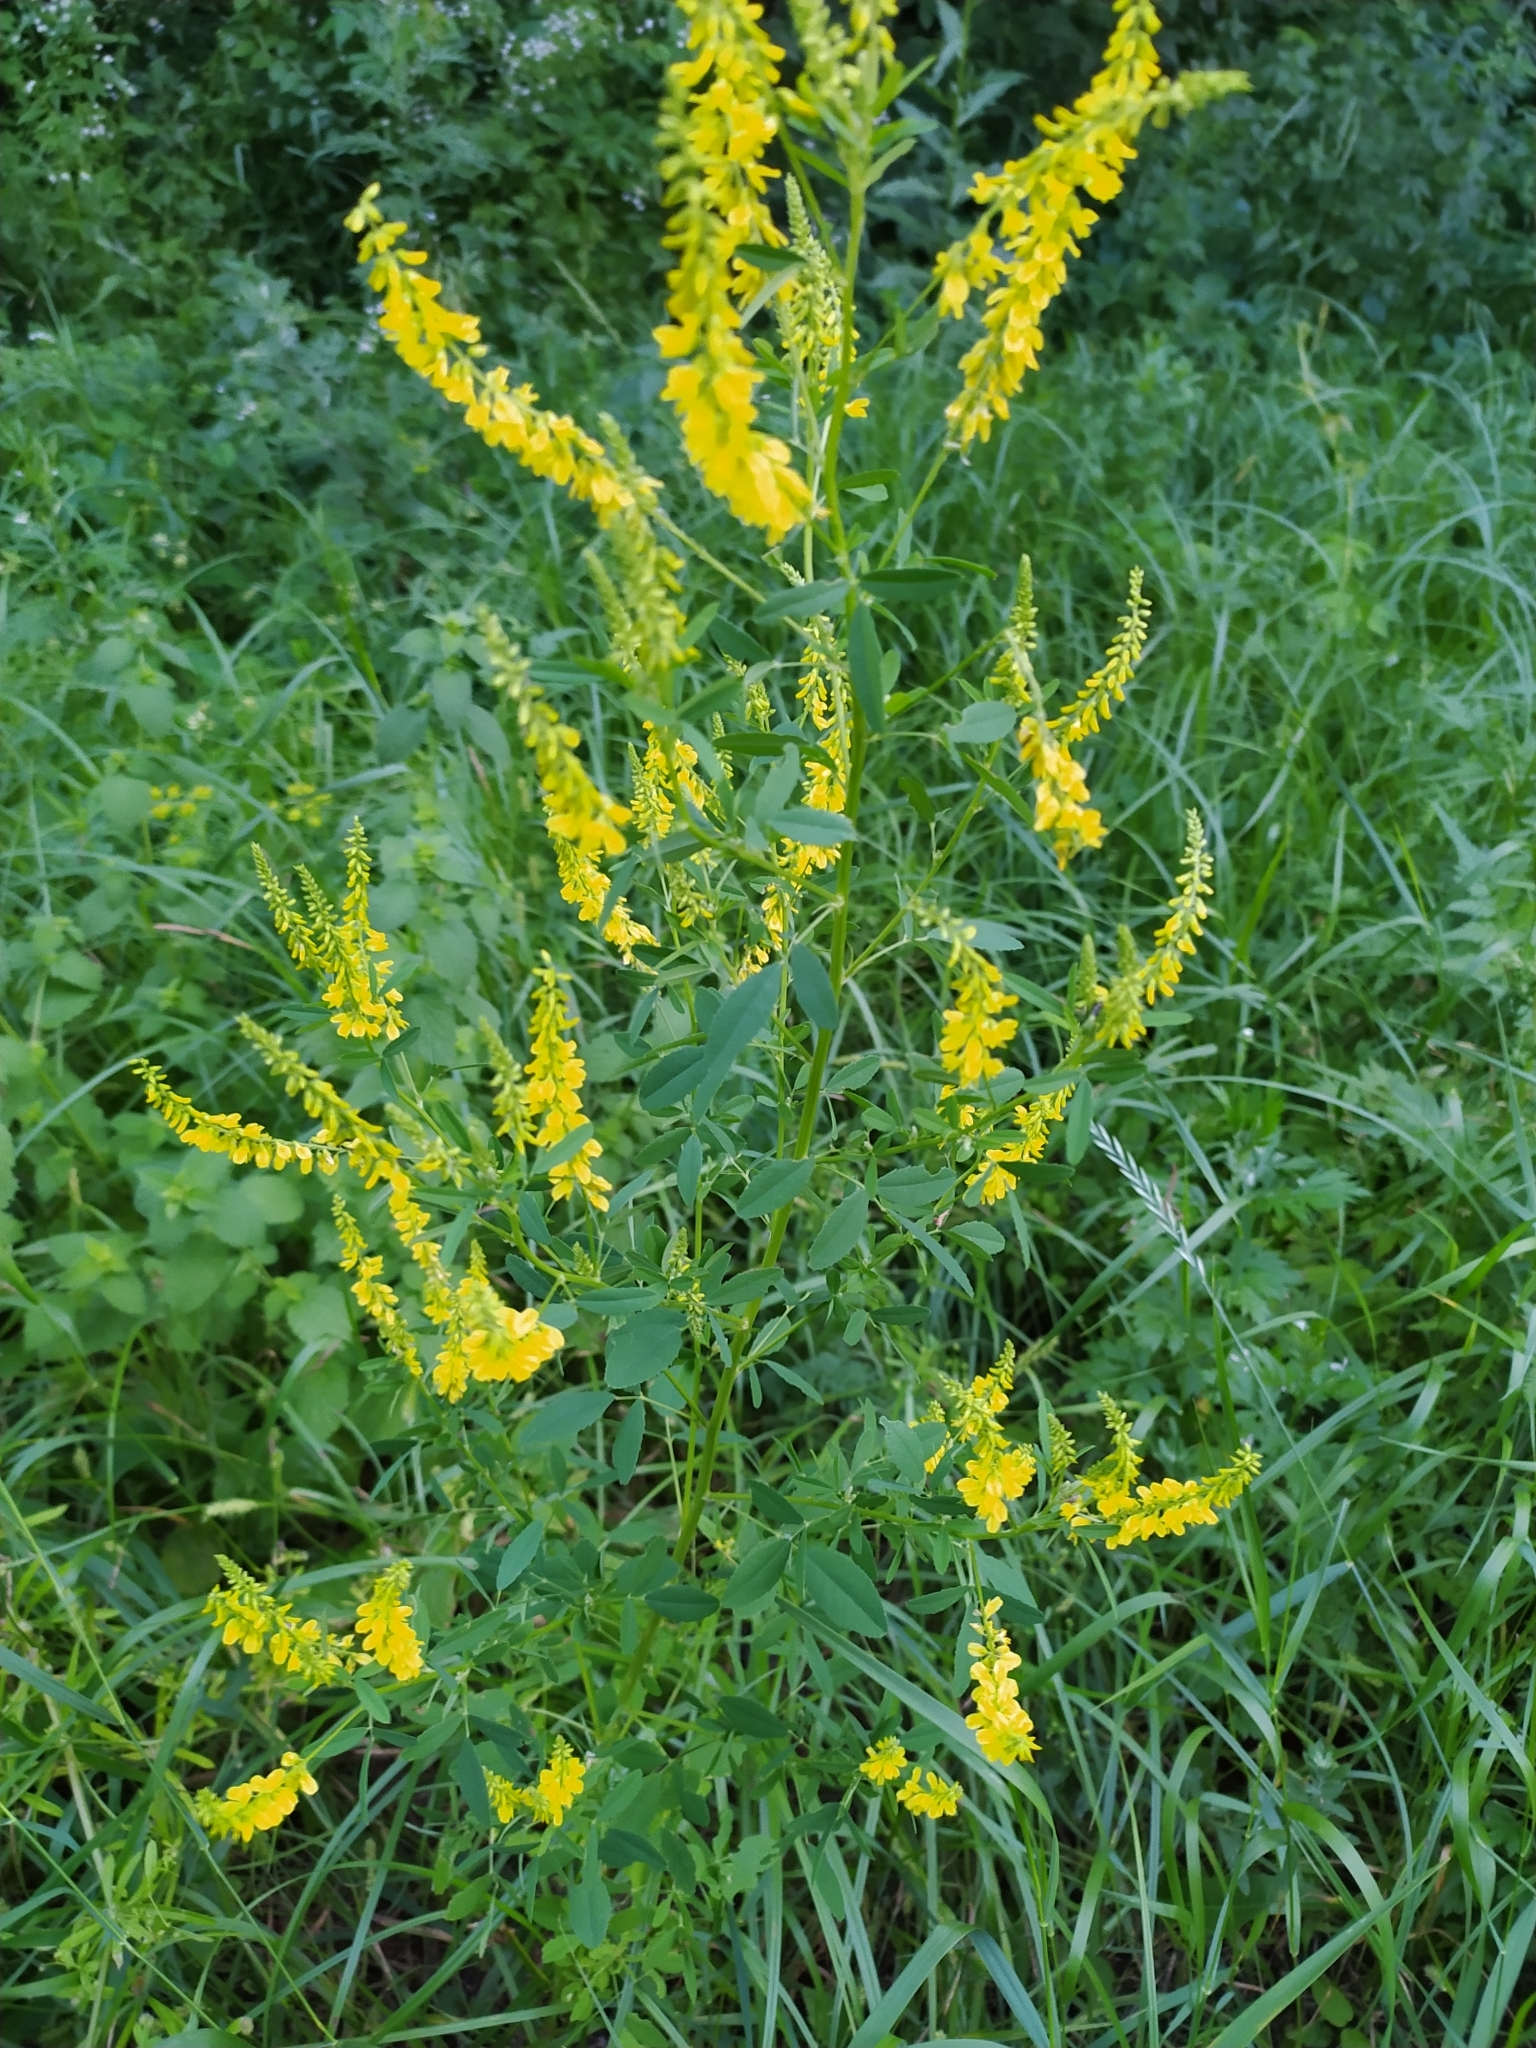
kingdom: Plantae
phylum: Tracheophyta
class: Magnoliopsida
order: Fabales
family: Fabaceae
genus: Melilotus
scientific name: Melilotus officinalis
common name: Sweetclover
